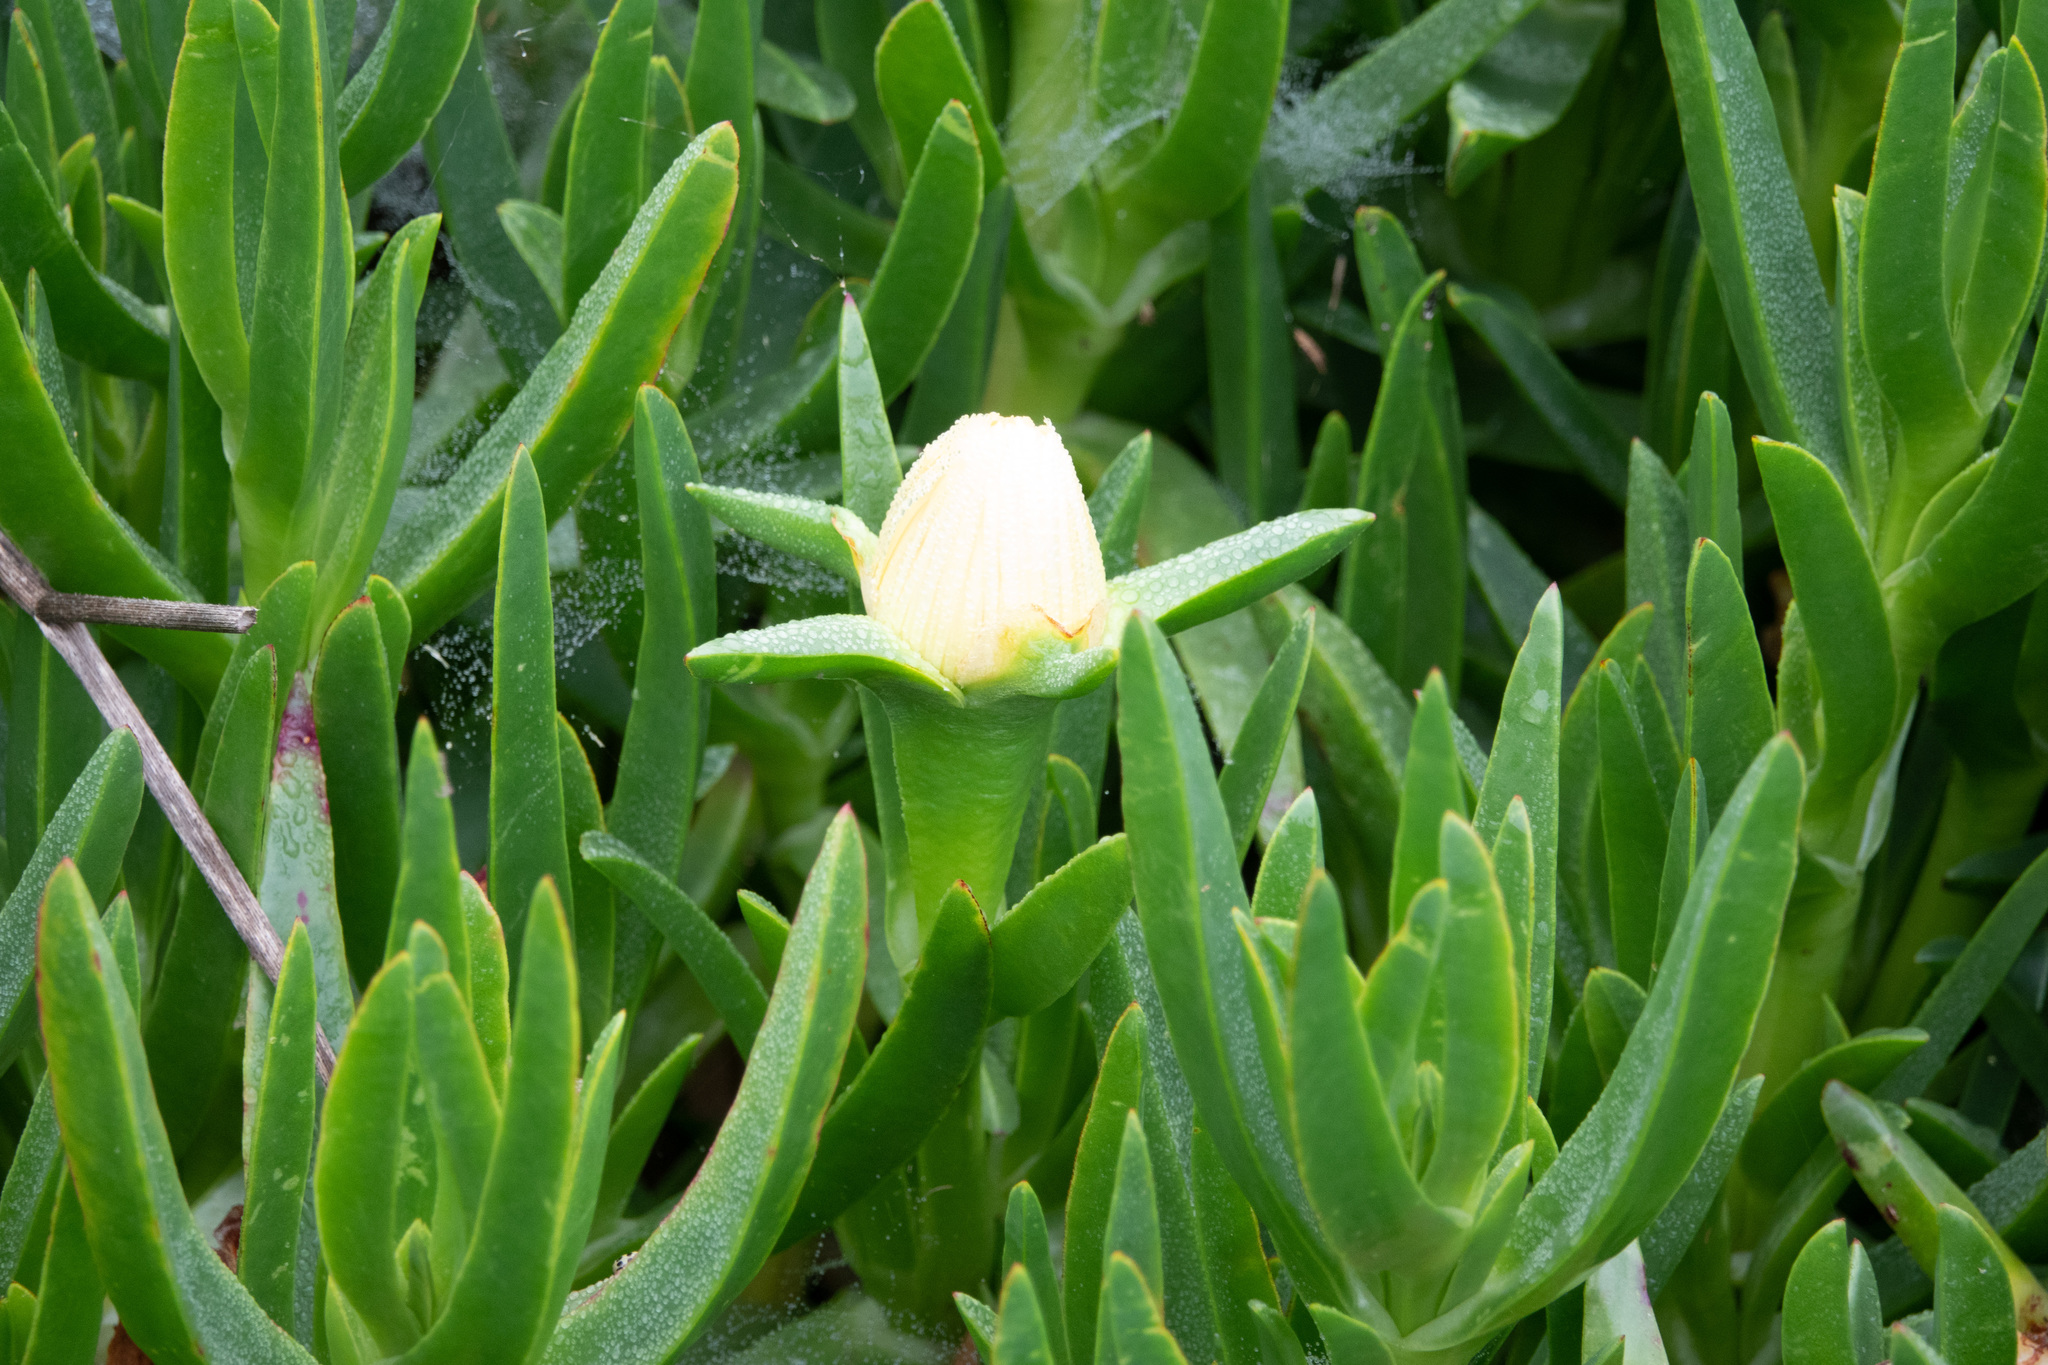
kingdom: Plantae
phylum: Tracheophyta
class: Magnoliopsida
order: Caryophyllales
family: Aizoaceae
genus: Carpobrotus
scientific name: Carpobrotus edulis
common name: Hottentot-fig
